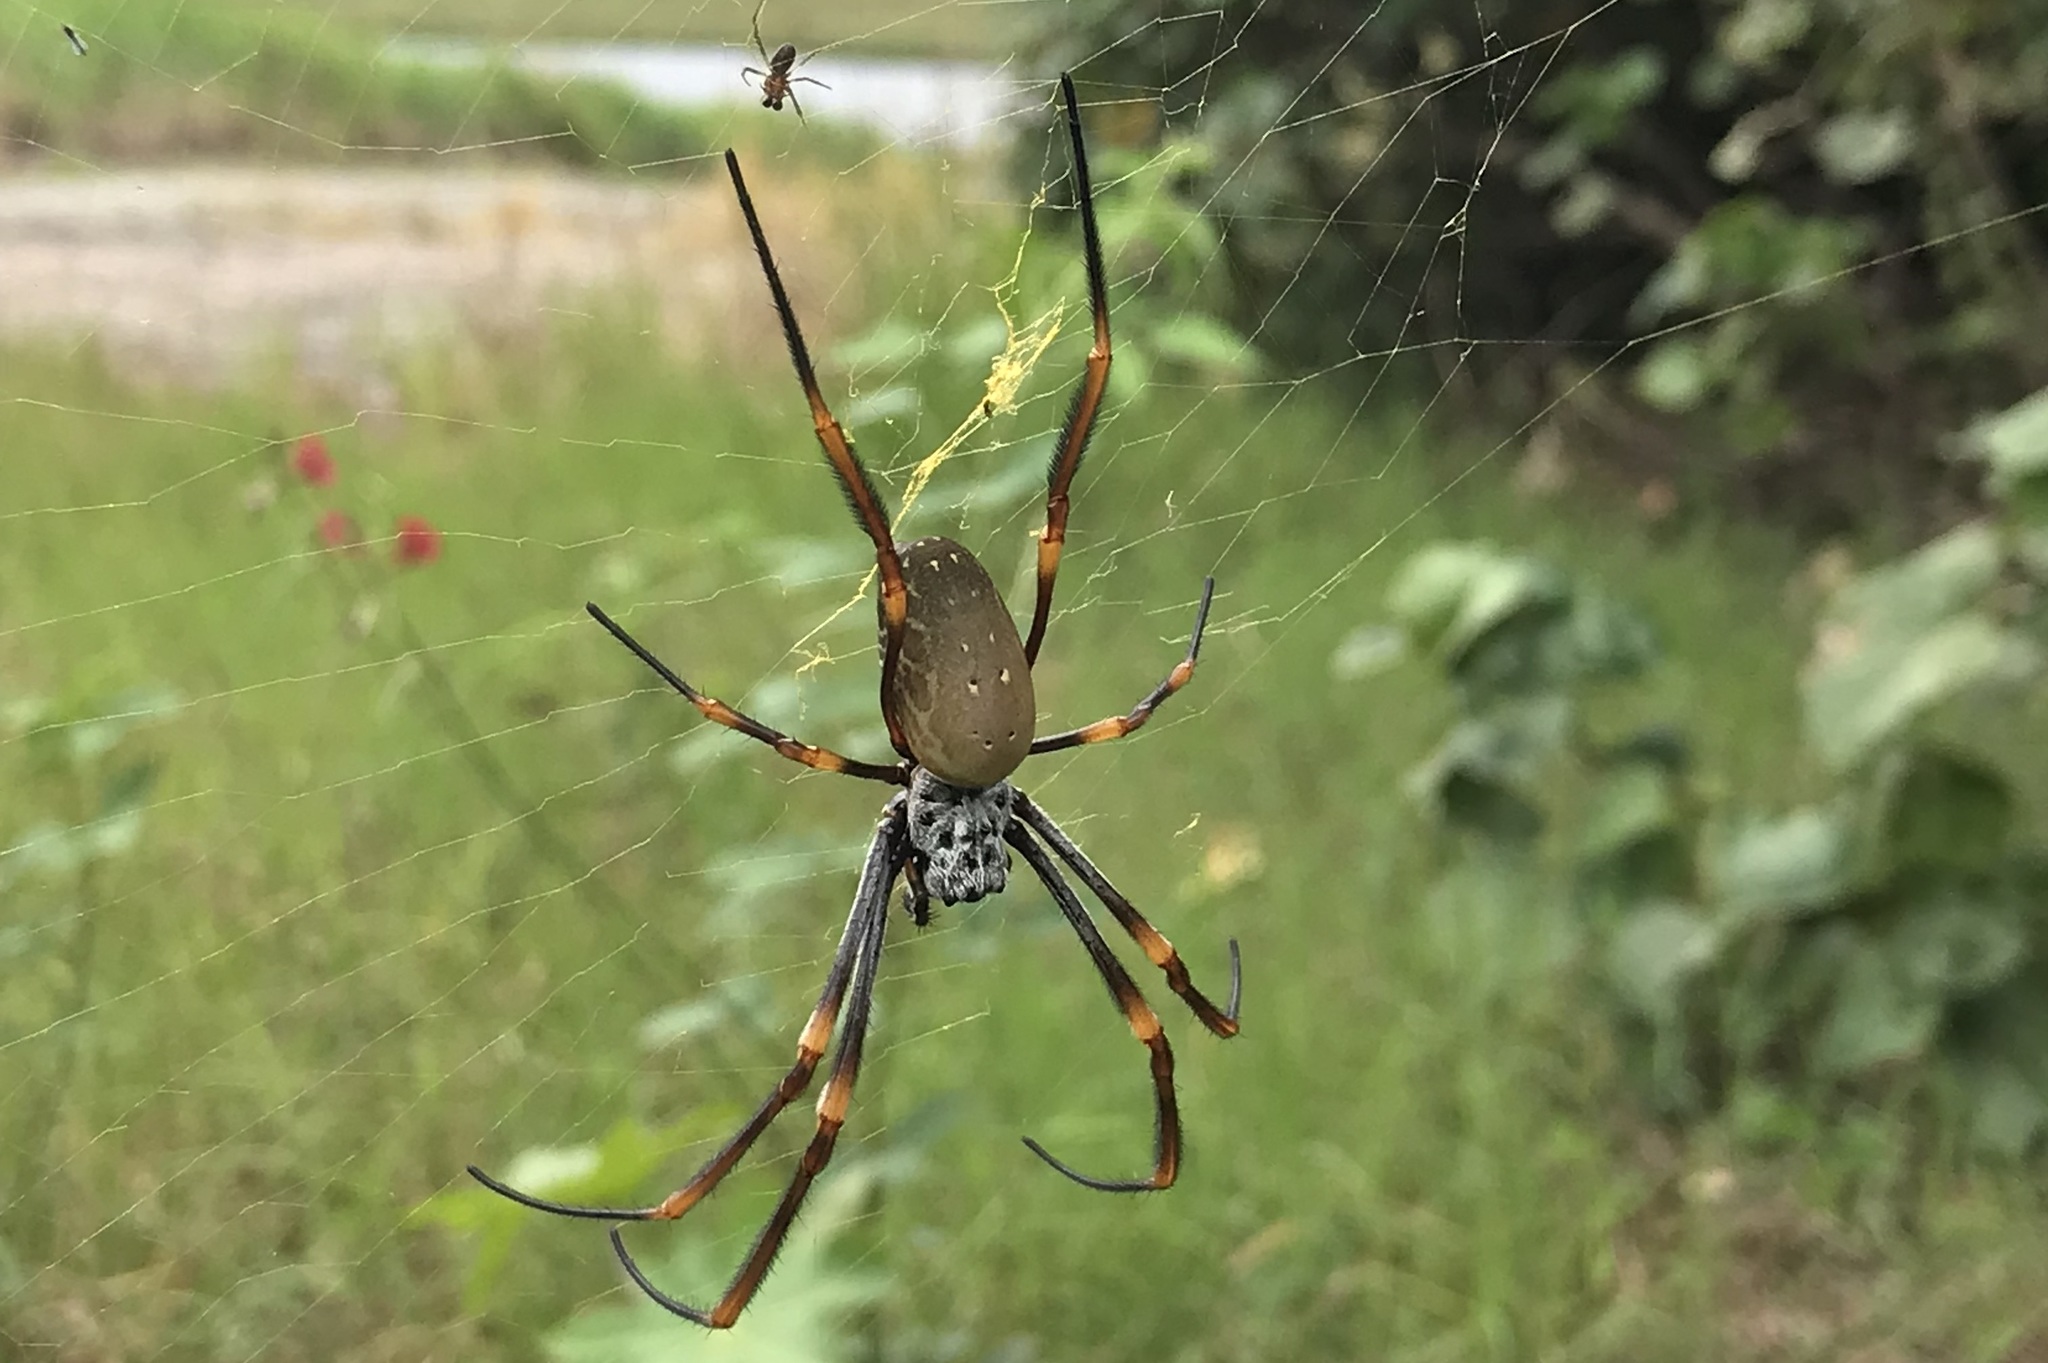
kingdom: Animalia
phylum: Arthropoda
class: Arachnida
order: Araneae
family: Araneidae
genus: Trichonephila
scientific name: Trichonephila plumipes
